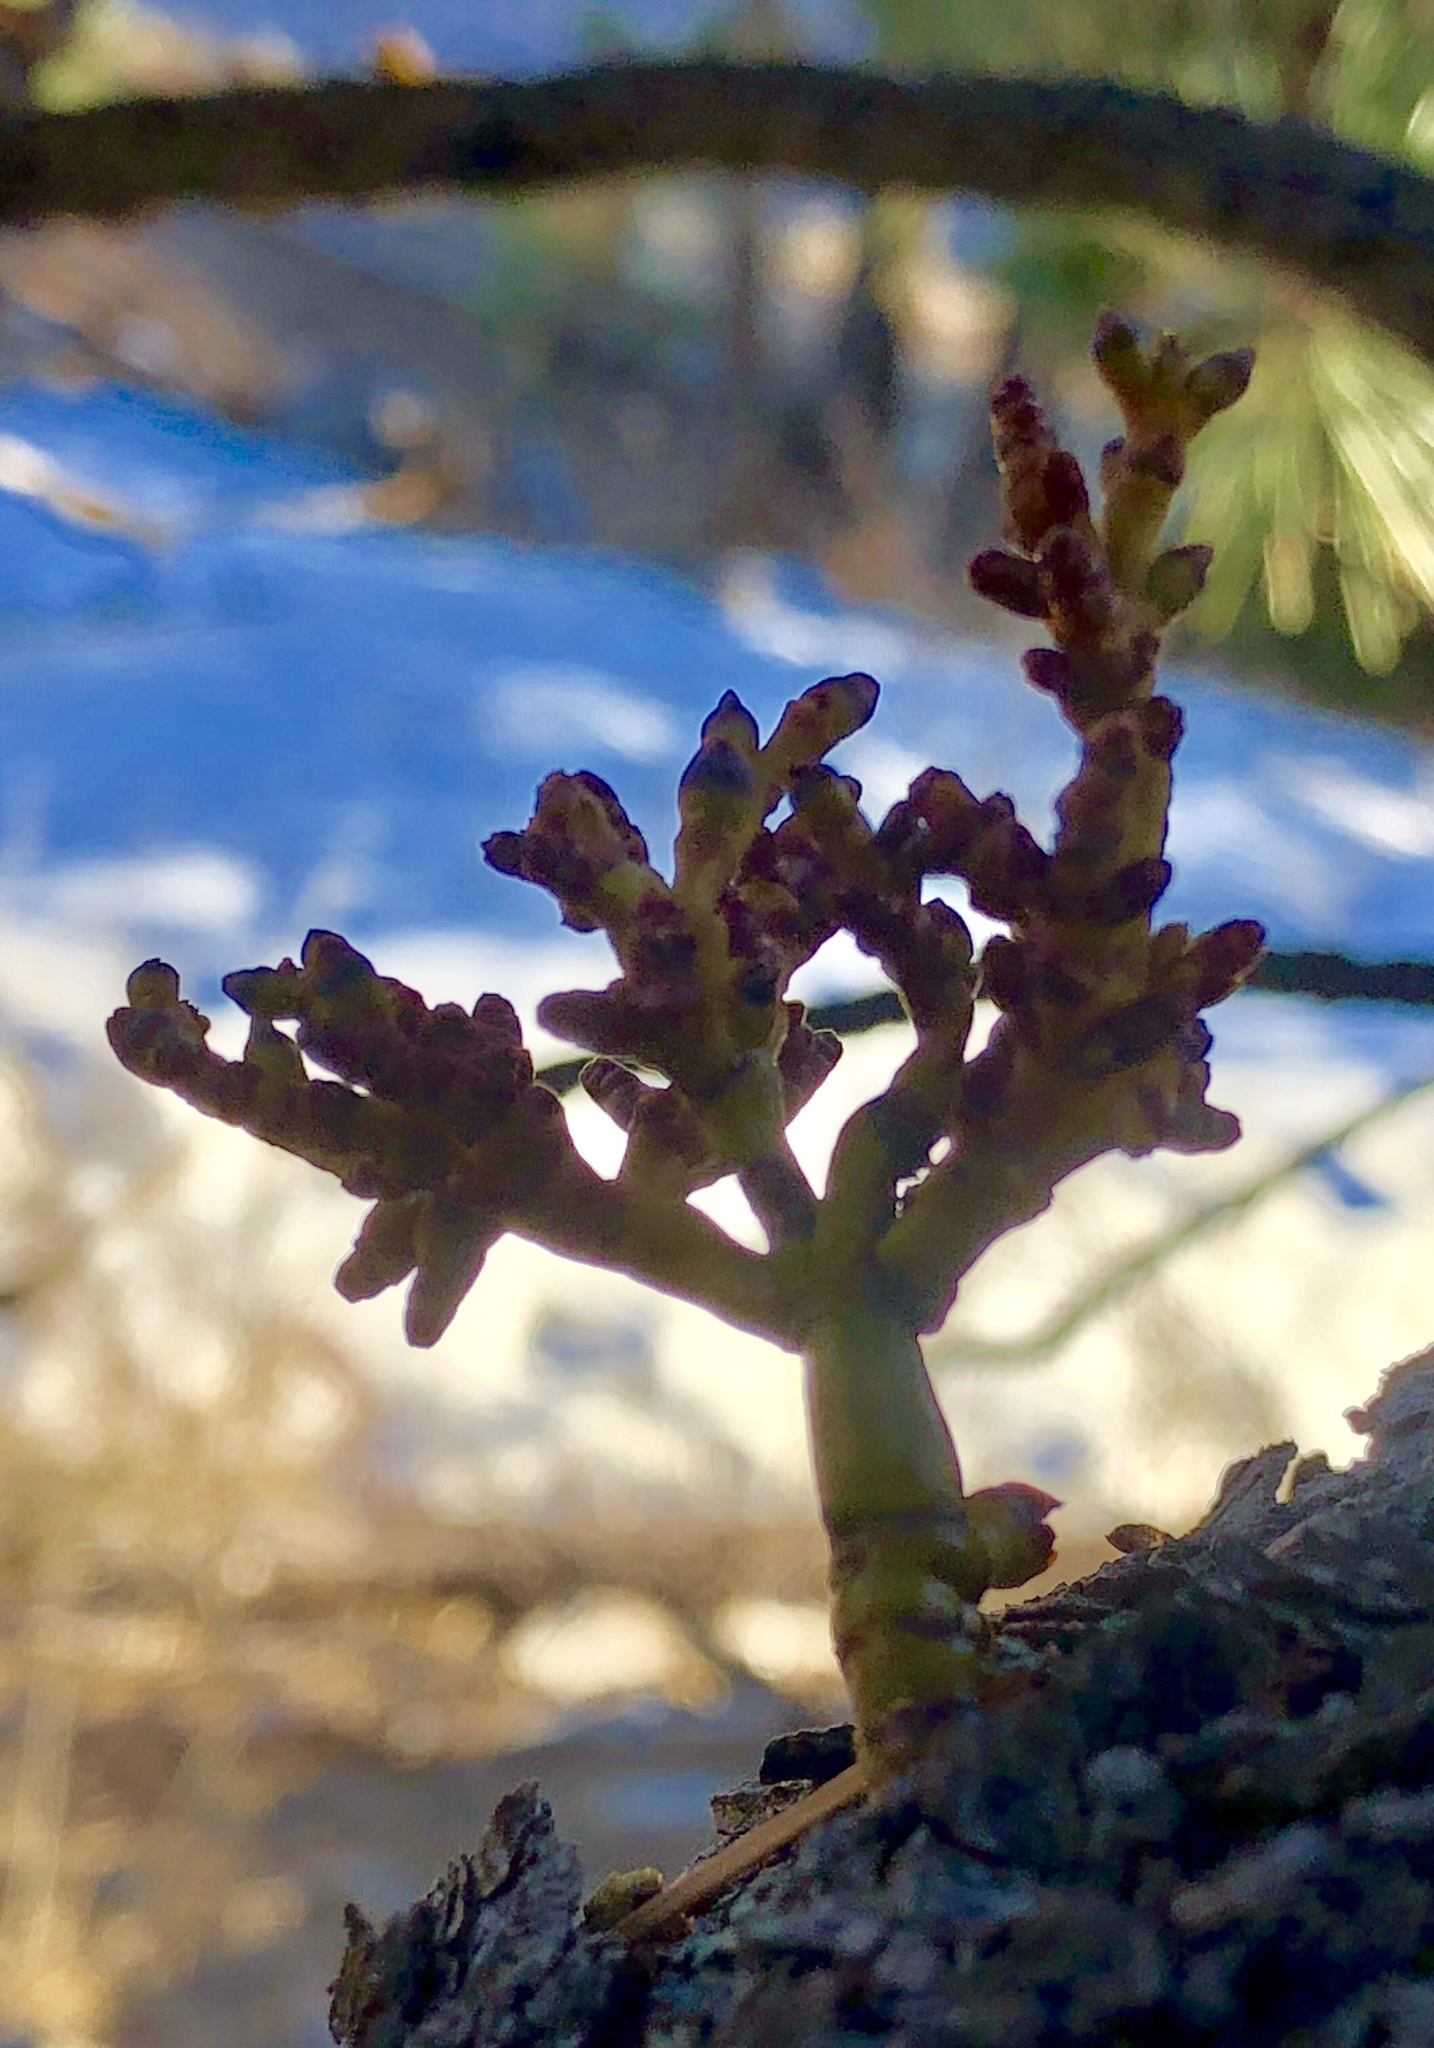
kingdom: Plantae
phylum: Tracheophyta
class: Magnoliopsida
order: Santalales
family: Viscaceae
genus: Arceuthobium
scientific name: Arceuthobium vaginatum
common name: Southwestern dwarf-mistletoe
